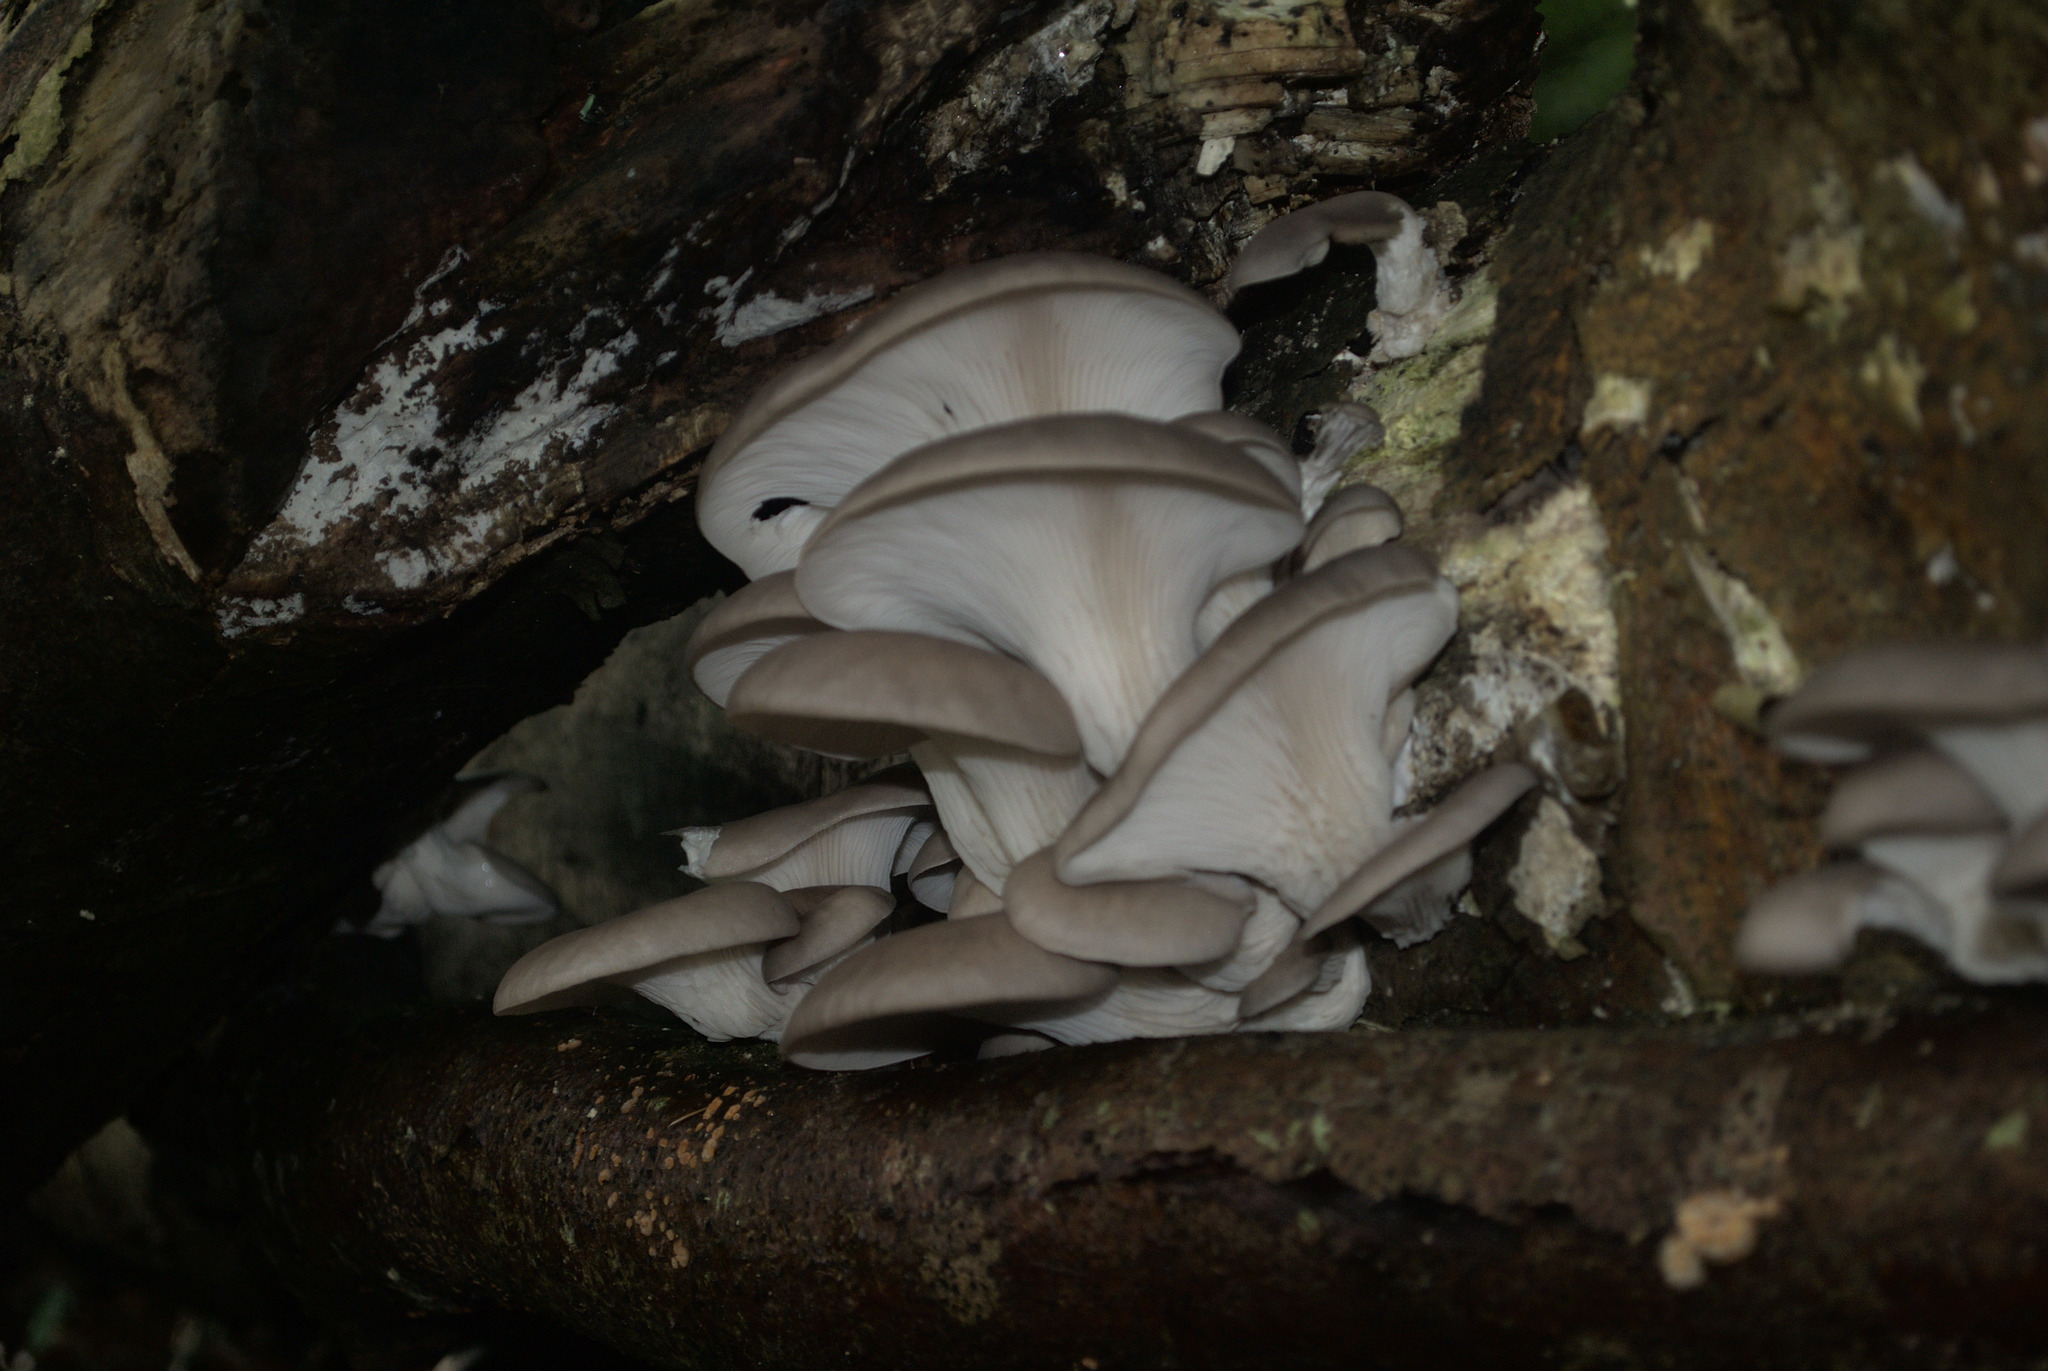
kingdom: Fungi
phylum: Basidiomycota
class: Agaricomycetes
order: Agaricales
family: Pleurotaceae
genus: Pleurotus
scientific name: Pleurotus ostreatus
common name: Oyster mushroom
